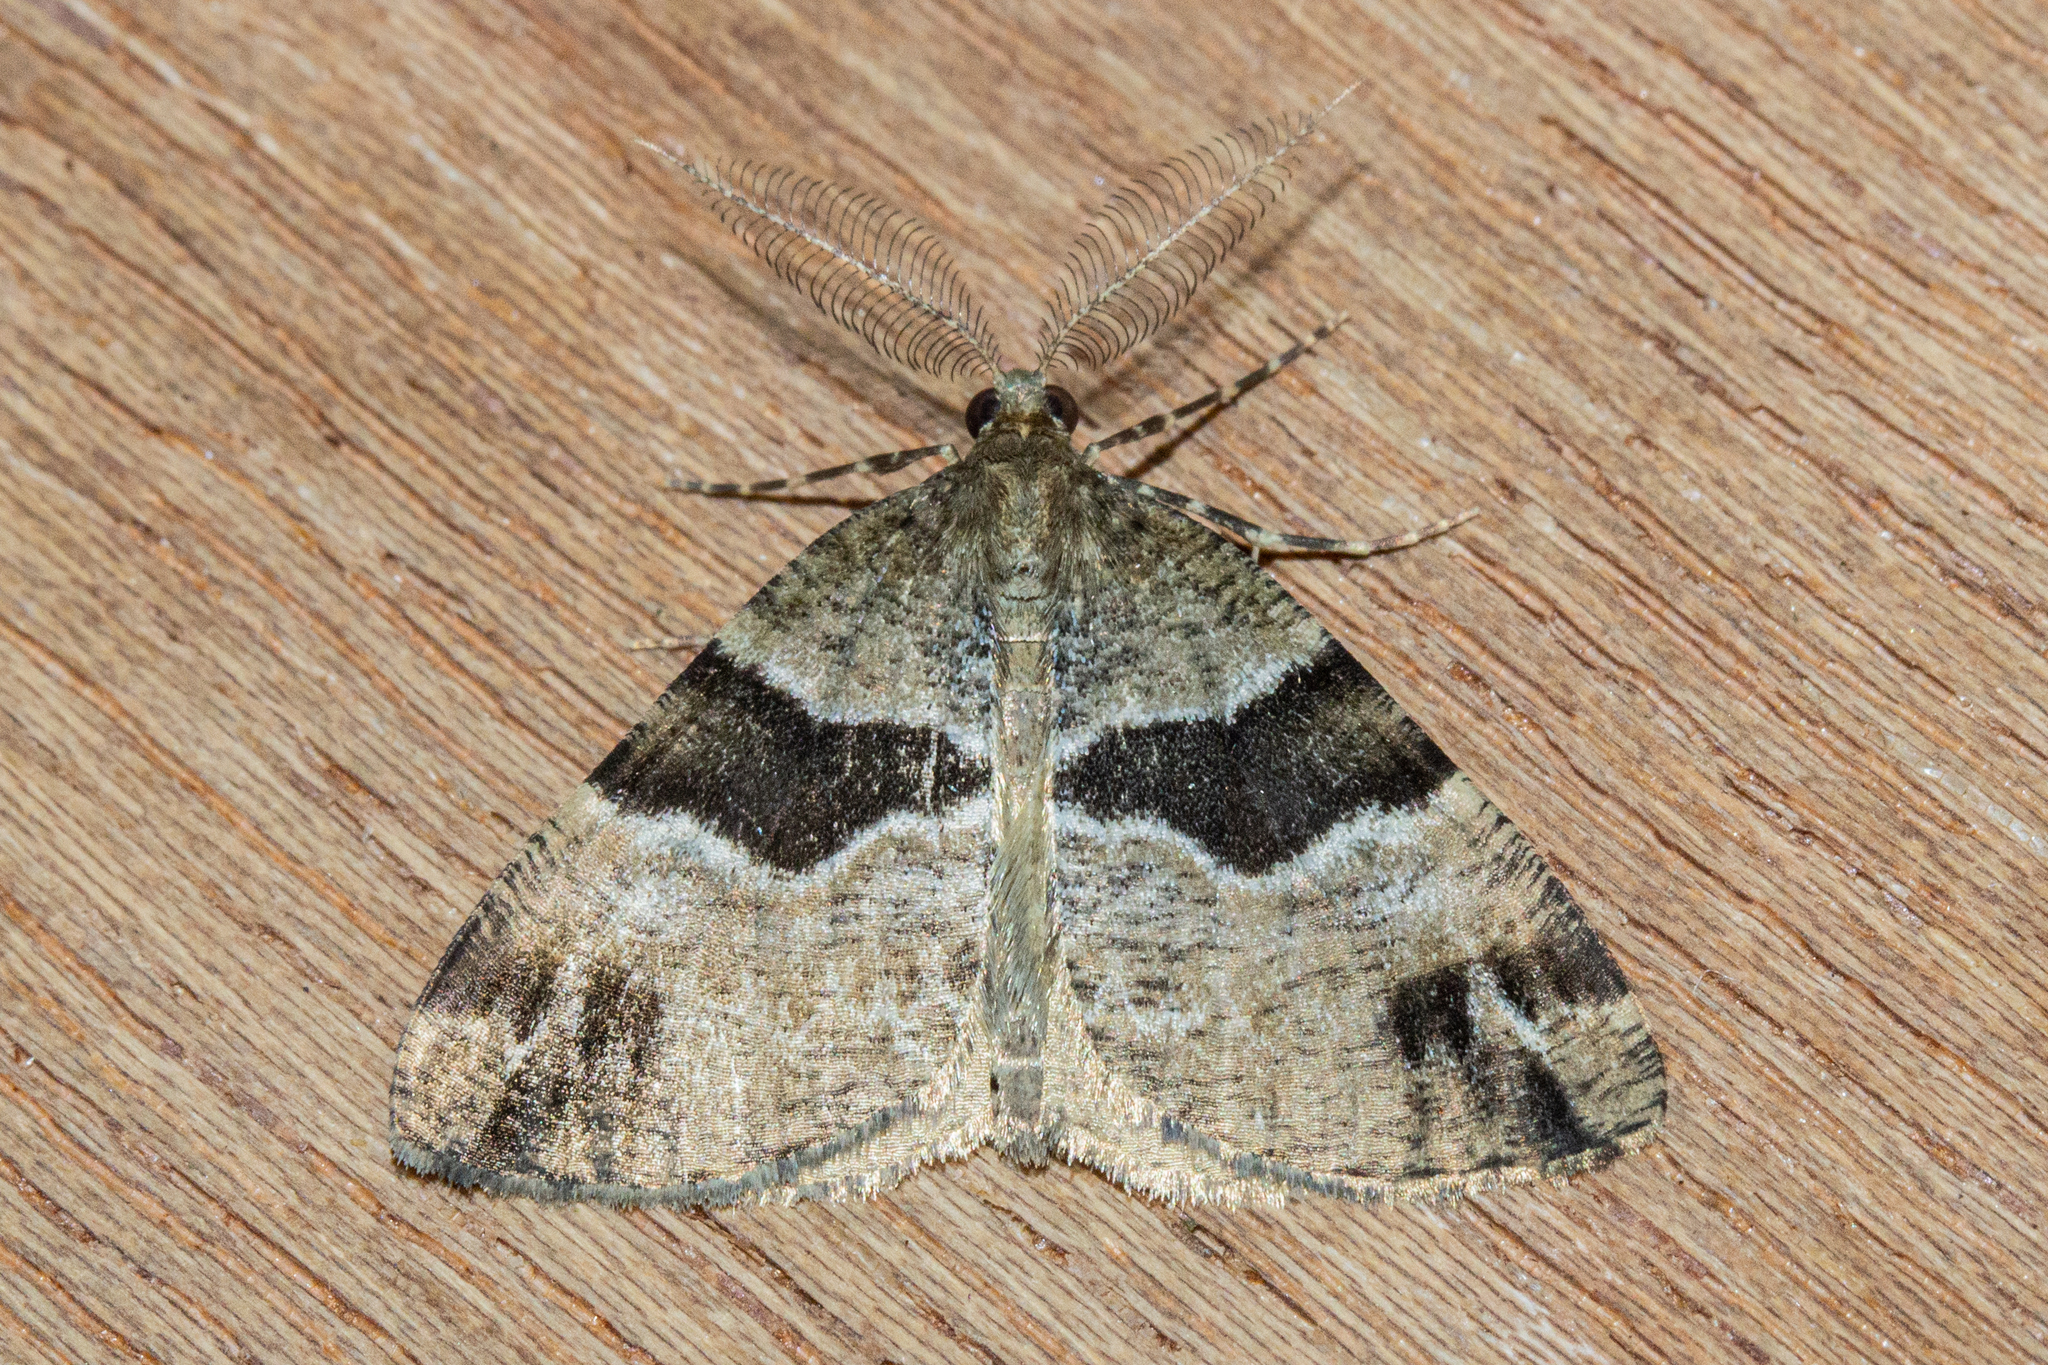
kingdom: Animalia
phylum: Arthropoda
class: Insecta
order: Lepidoptera
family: Geometridae
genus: Pseudocoremia
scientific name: Pseudocoremia
